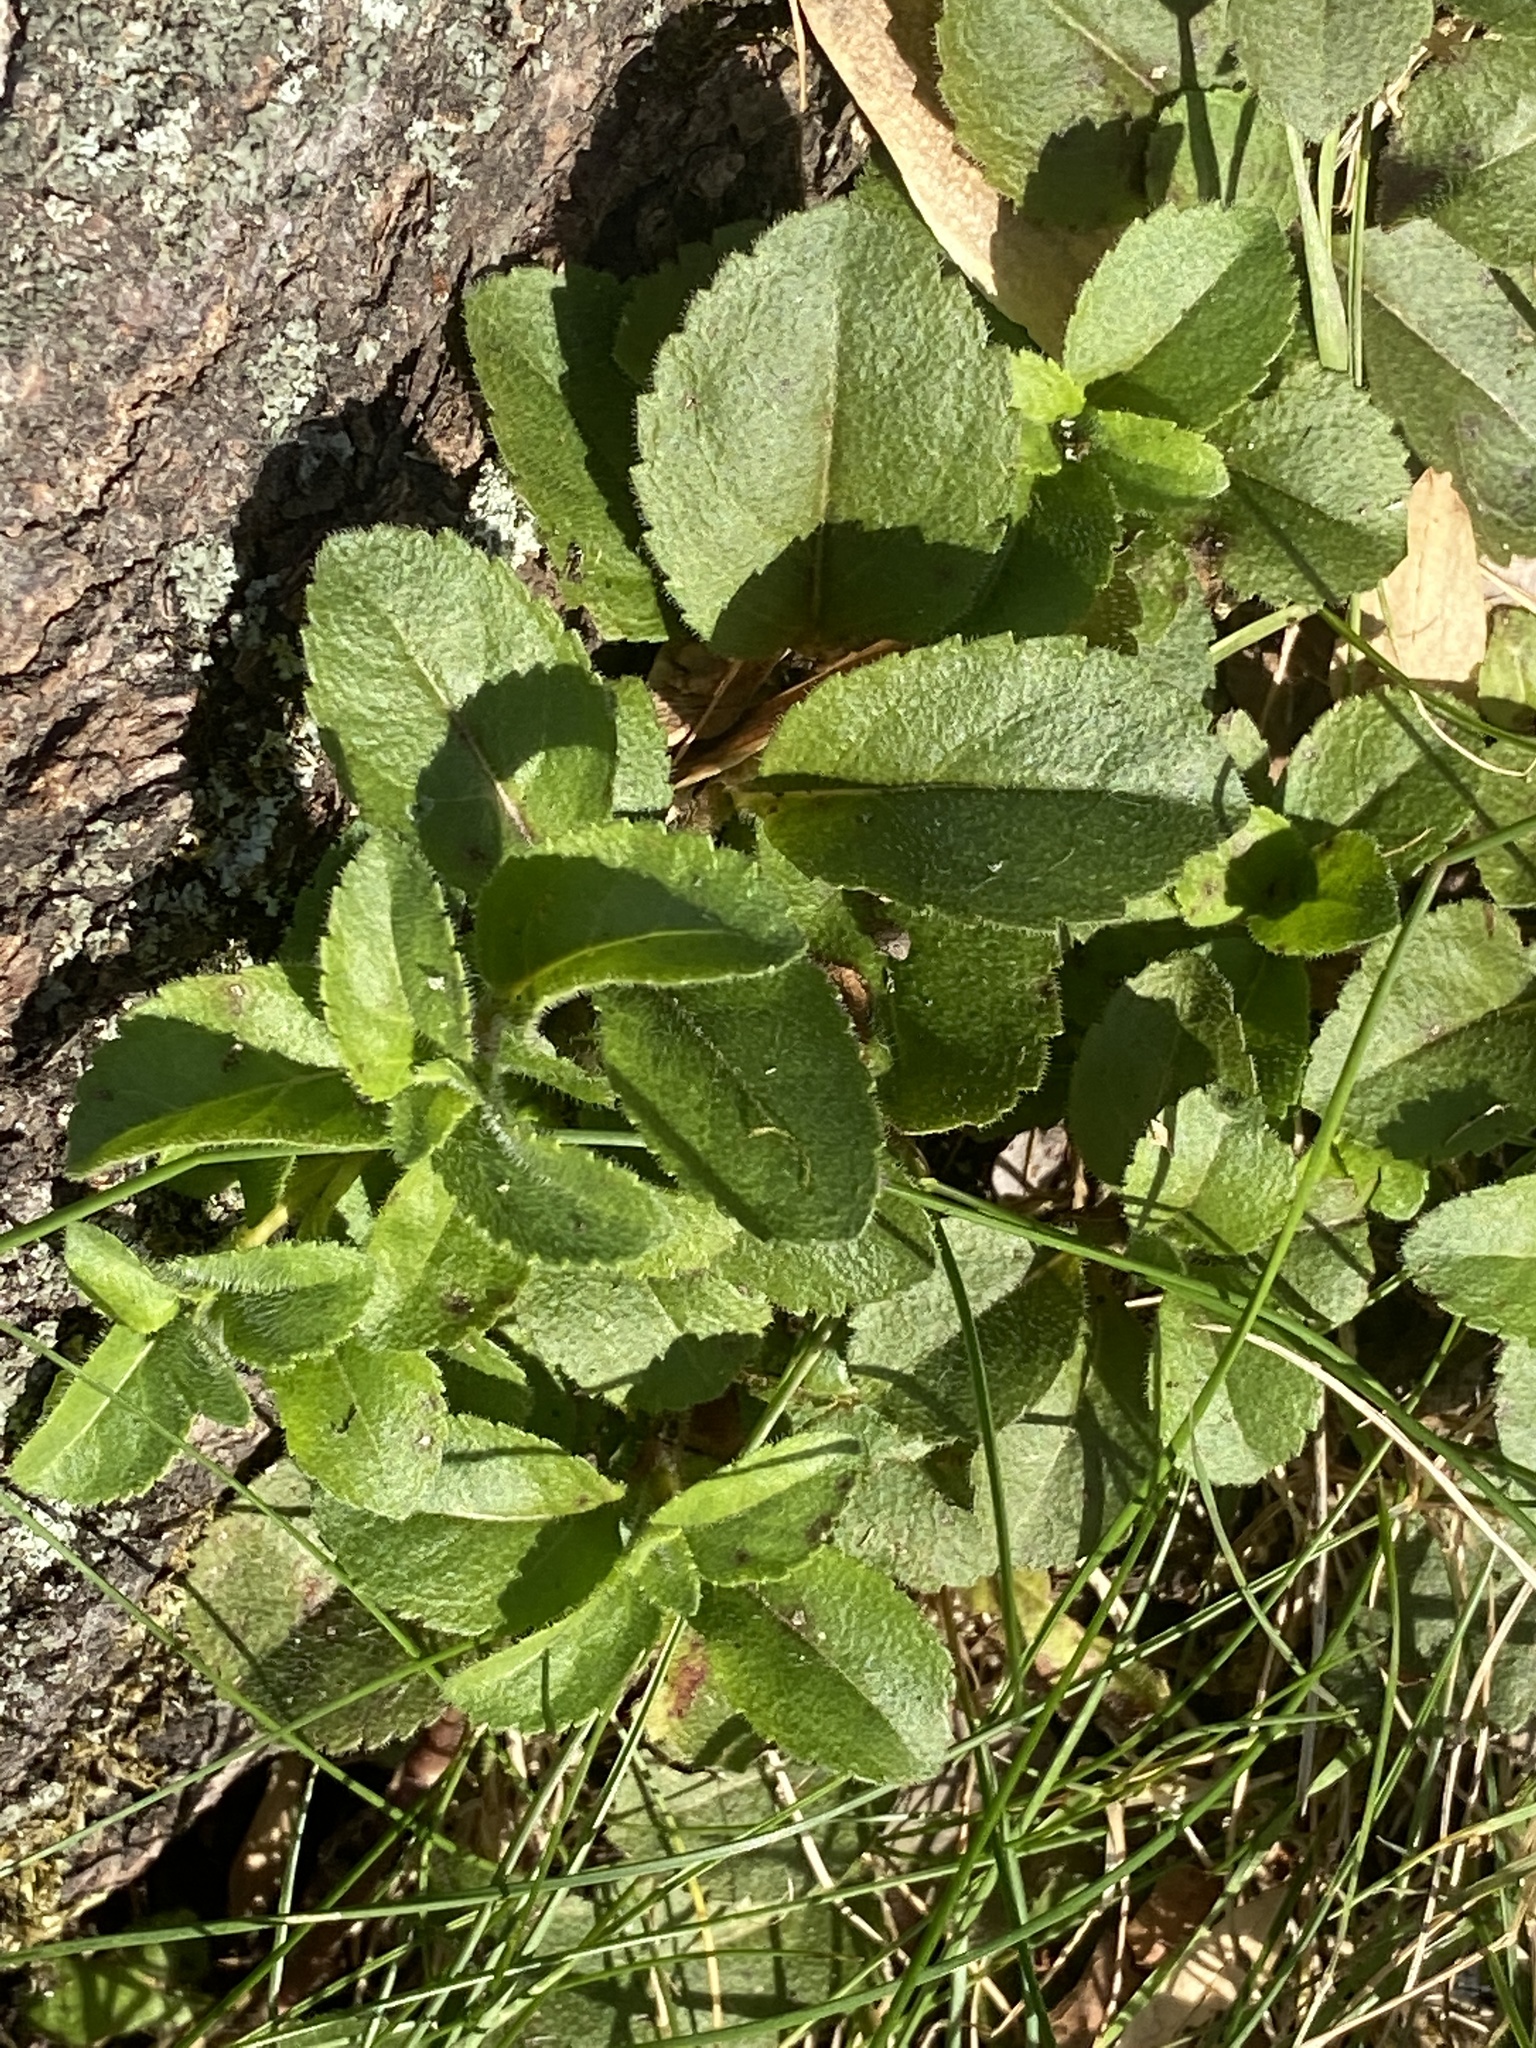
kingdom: Plantae
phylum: Tracheophyta
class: Magnoliopsida
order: Lamiales
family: Plantaginaceae
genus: Veronica
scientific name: Veronica officinalis
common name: Common speedwell
